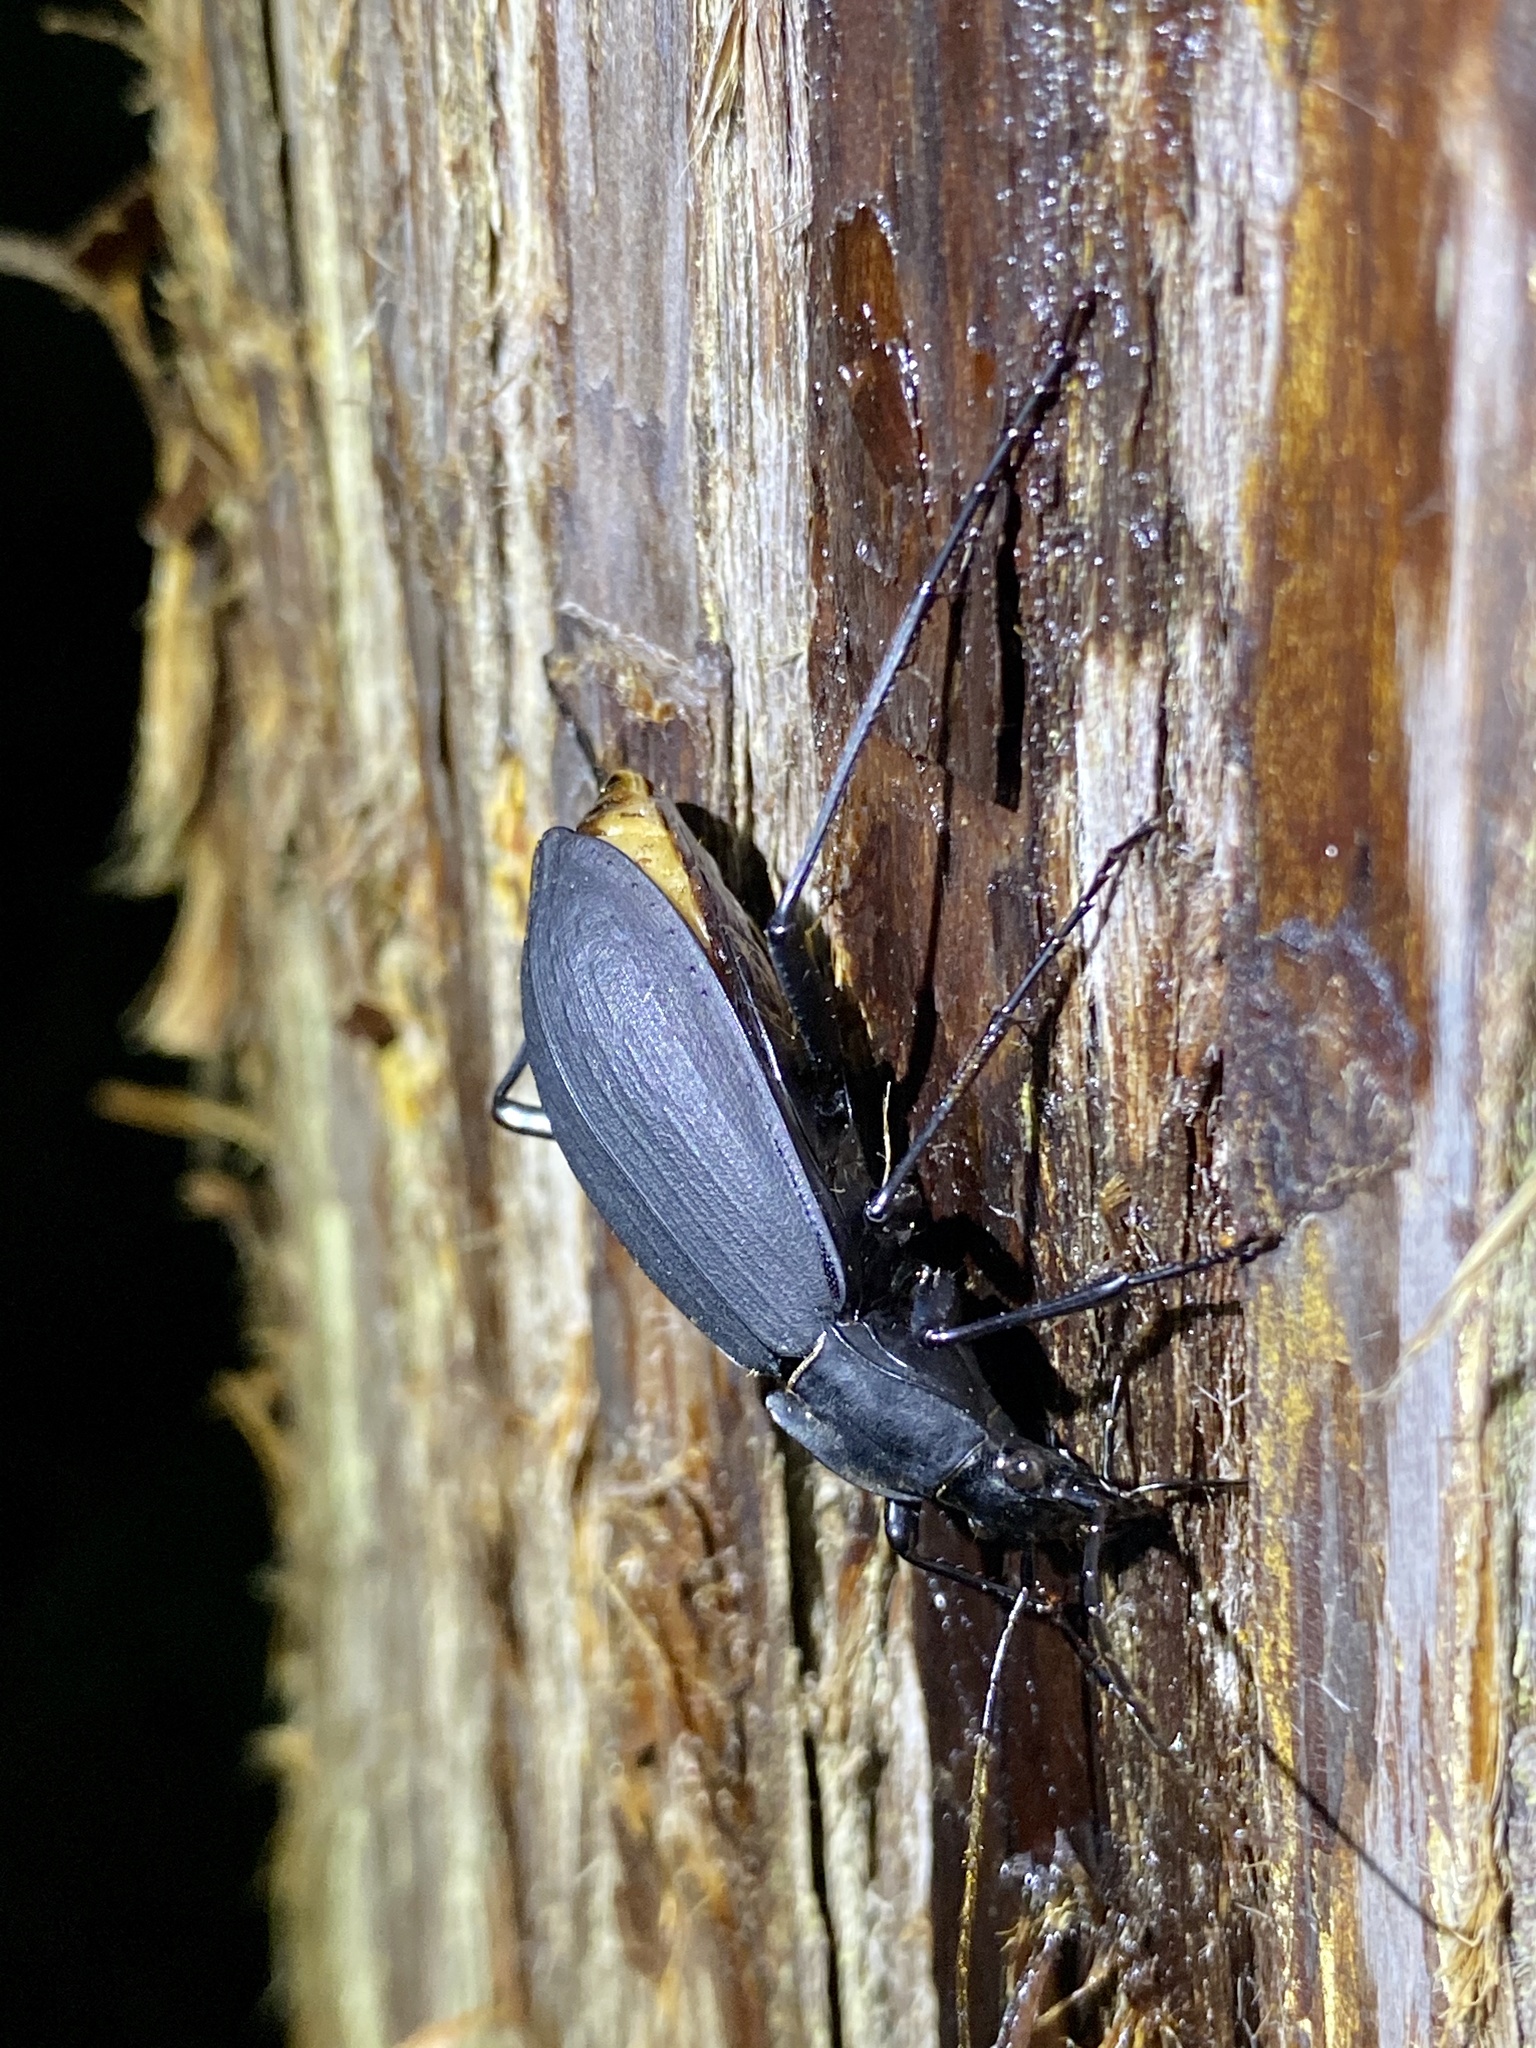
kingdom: Animalia
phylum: Arthropoda
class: Insecta
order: Coleoptera
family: Carabidae
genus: Carabus
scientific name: Carabus procerulus
